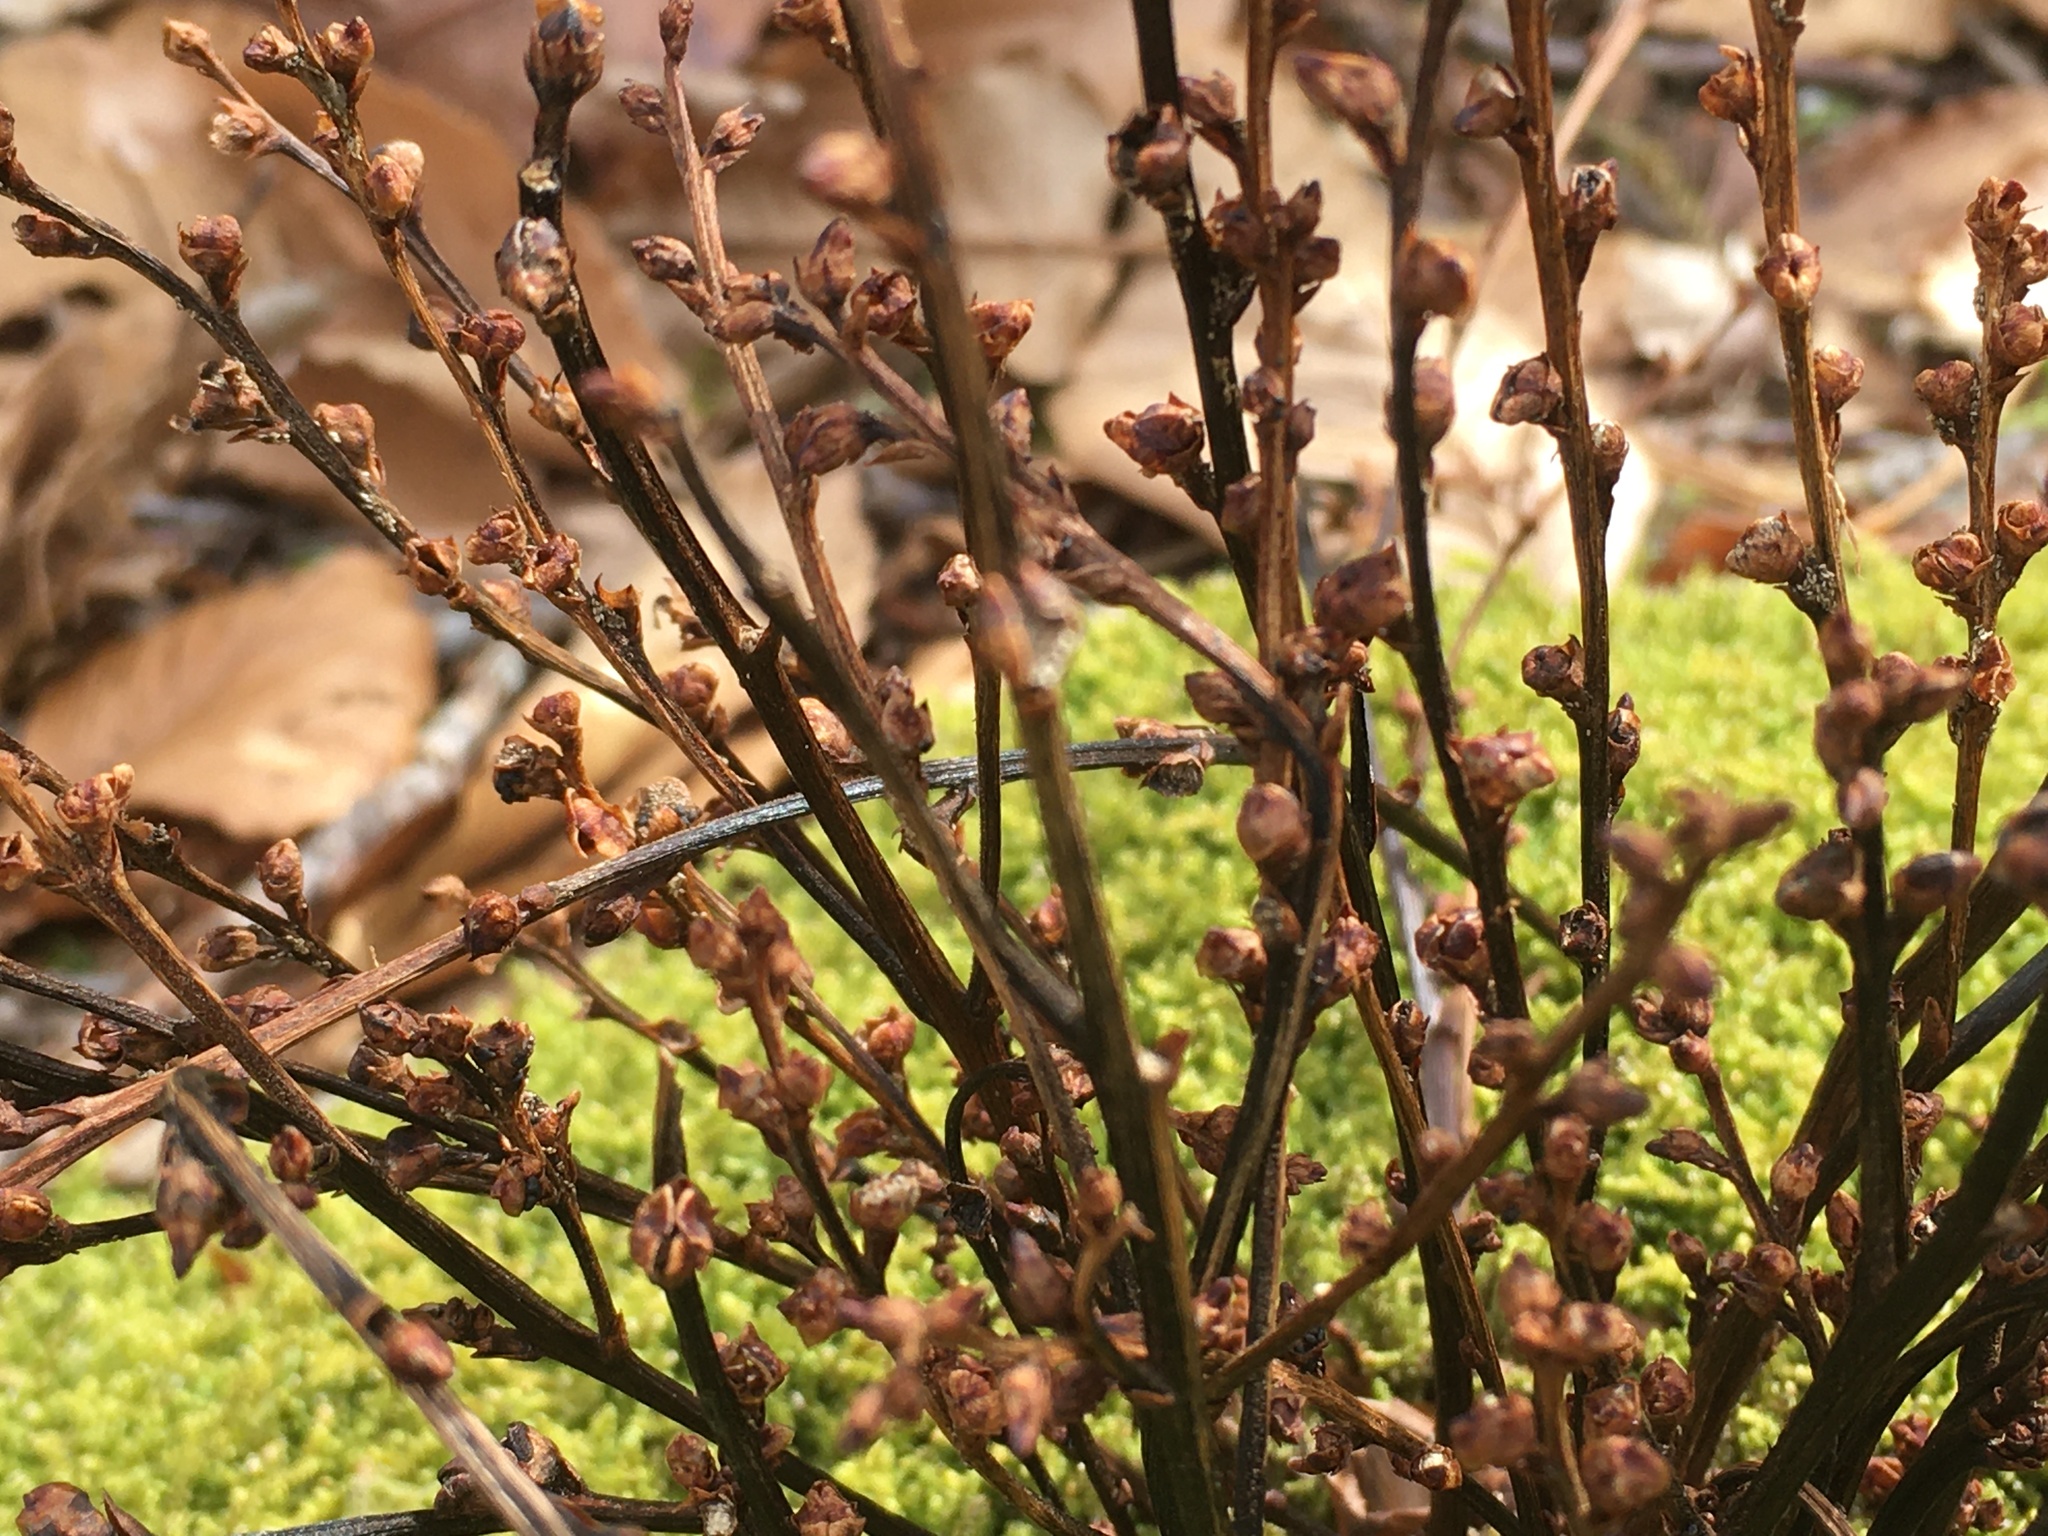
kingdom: Plantae
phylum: Tracheophyta
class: Magnoliopsida
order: Lamiales
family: Orobanchaceae
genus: Epifagus
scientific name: Epifagus virginiana
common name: Beechdrops
